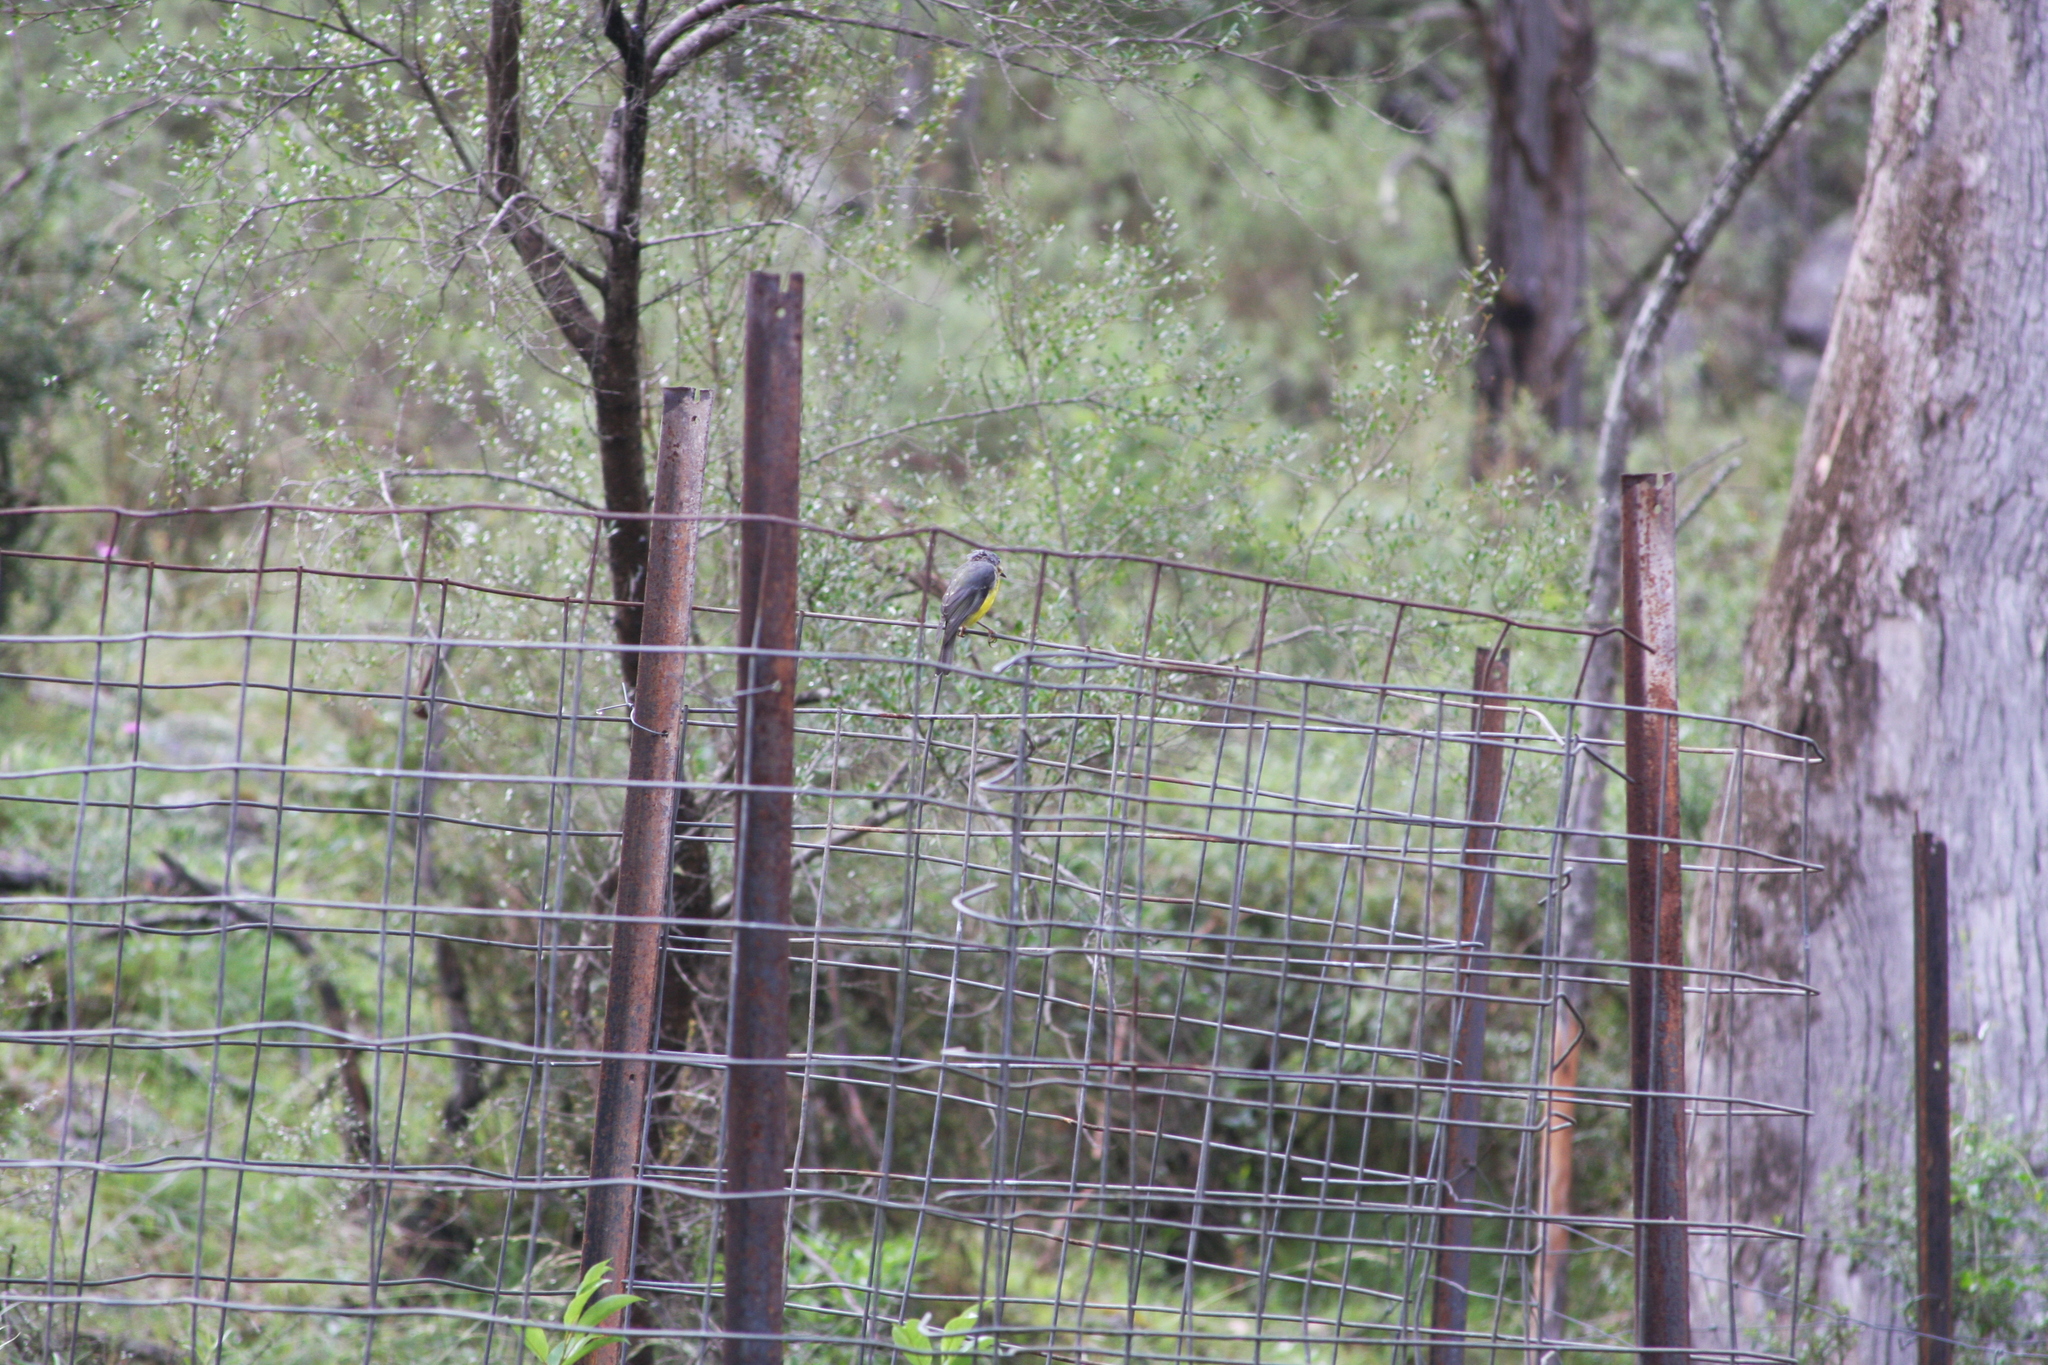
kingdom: Animalia
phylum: Chordata
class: Aves
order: Passeriformes
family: Petroicidae
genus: Eopsaltria
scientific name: Eopsaltria australis
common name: Eastern yellow robin
